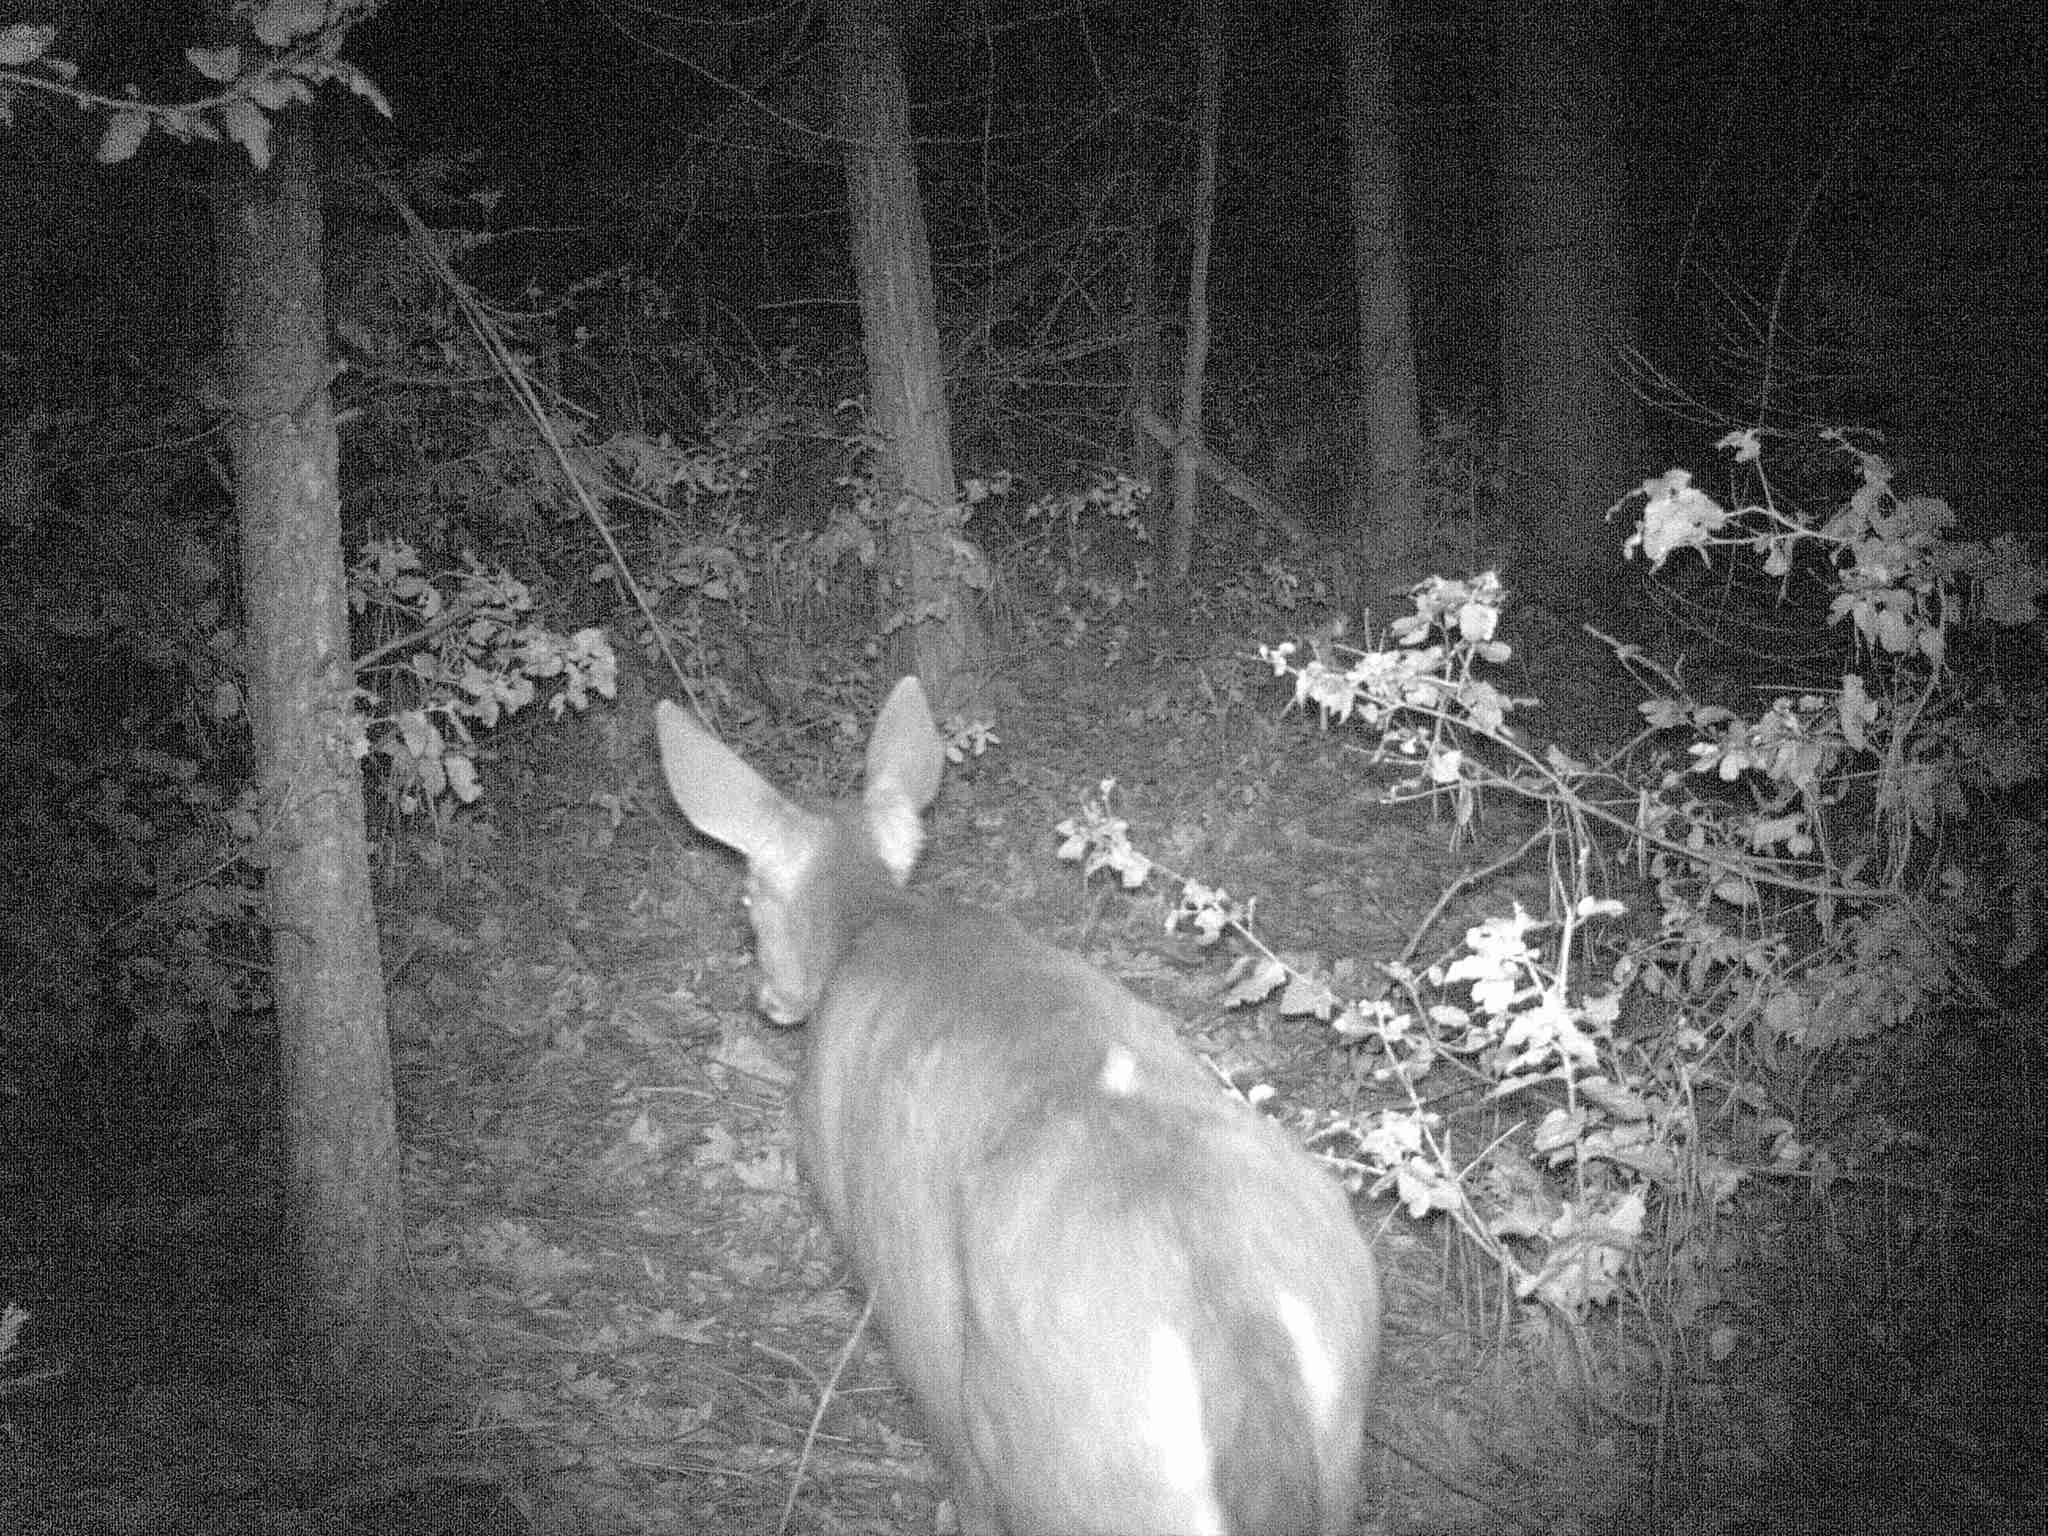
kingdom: Animalia
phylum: Chordata
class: Mammalia
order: Artiodactyla
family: Cervidae
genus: Odocoileus
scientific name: Odocoileus hemionus
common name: Mule deer
